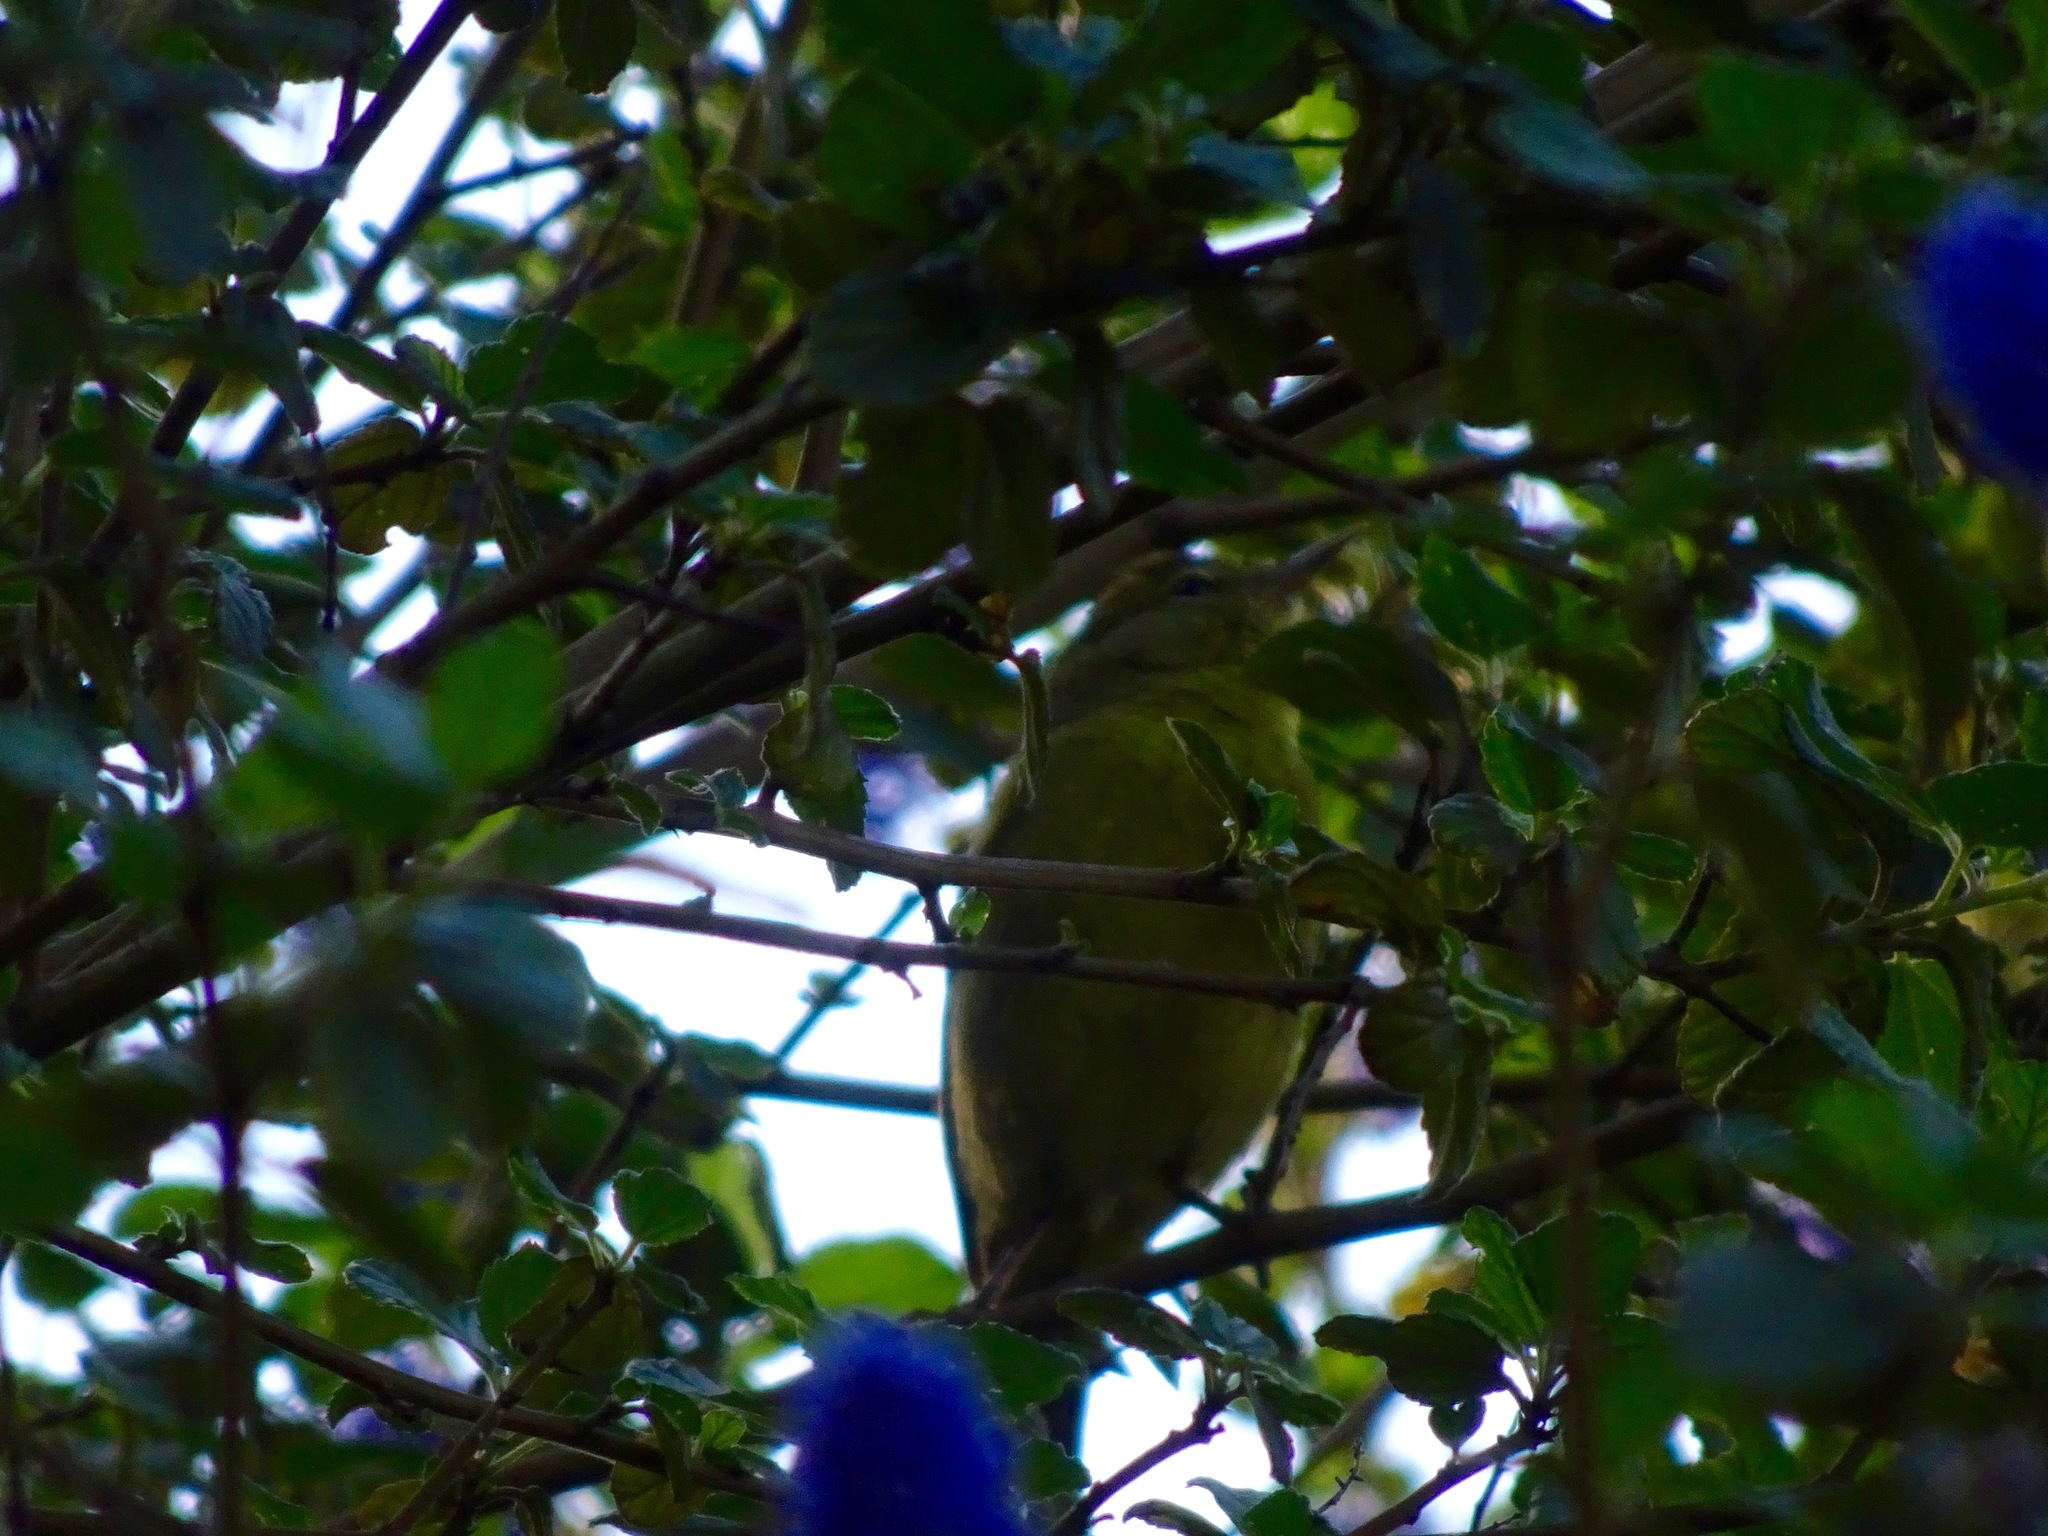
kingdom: Animalia
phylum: Chordata
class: Aves
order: Passeriformes
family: Parulidae
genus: Leiothlypis
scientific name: Leiothlypis celata
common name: Orange-crowned warbler
